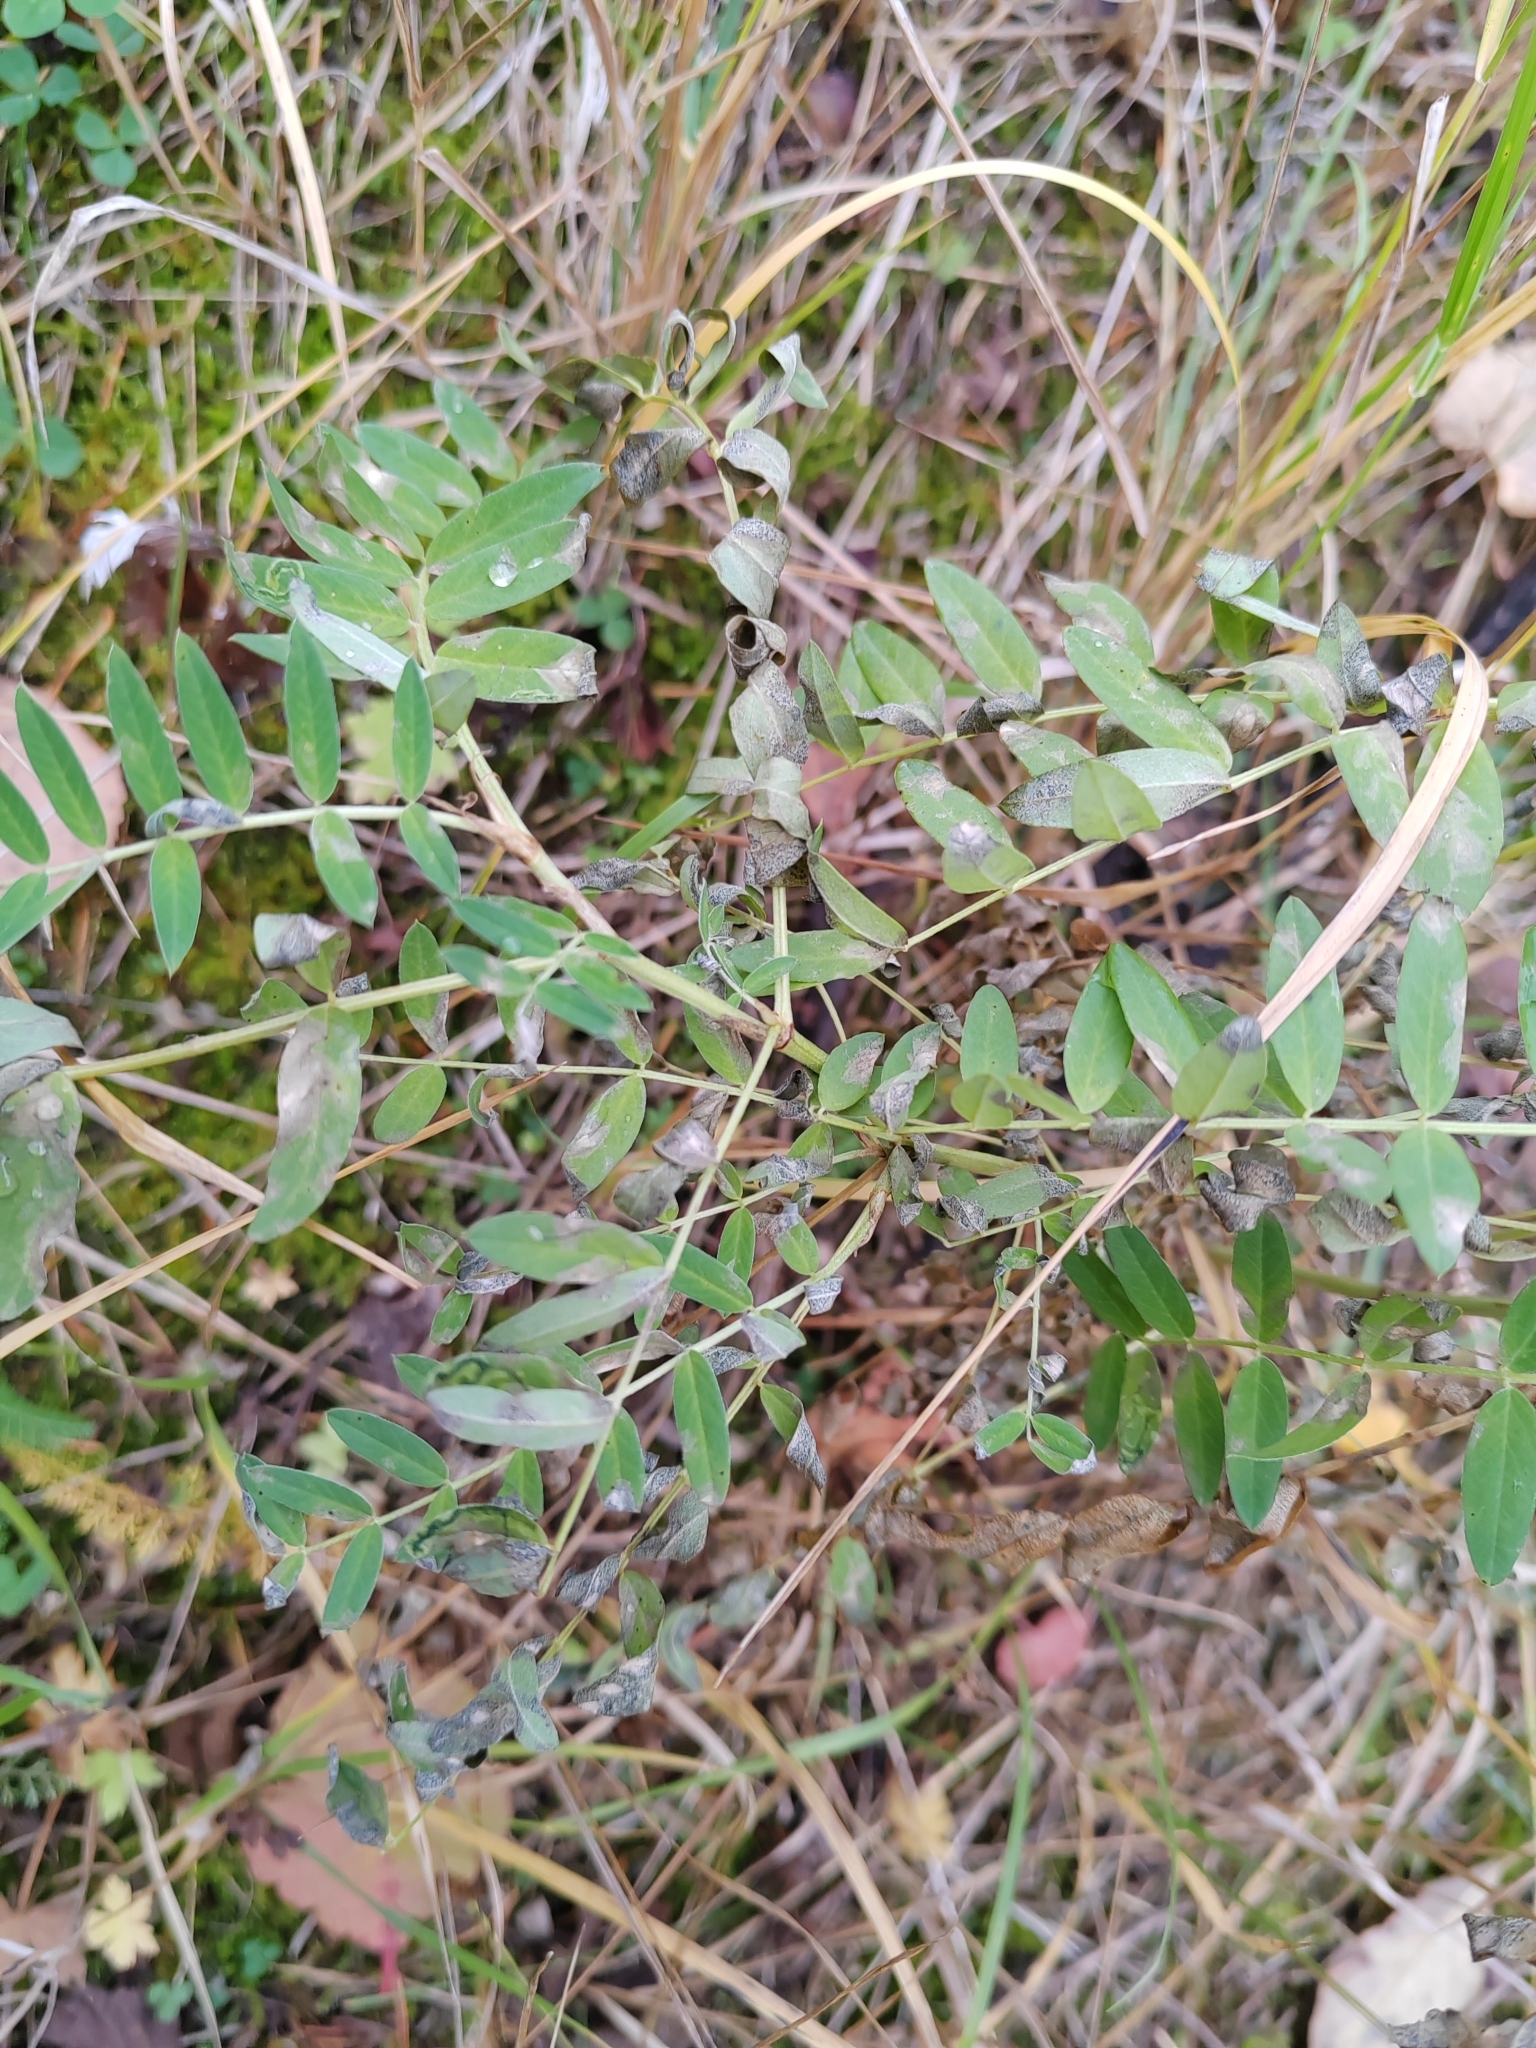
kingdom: Plantae
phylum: Tracheophyta
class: Magnoliopsida
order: Fabales
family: Fabaceae
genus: Astragalus
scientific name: Astragalus uliginosus
